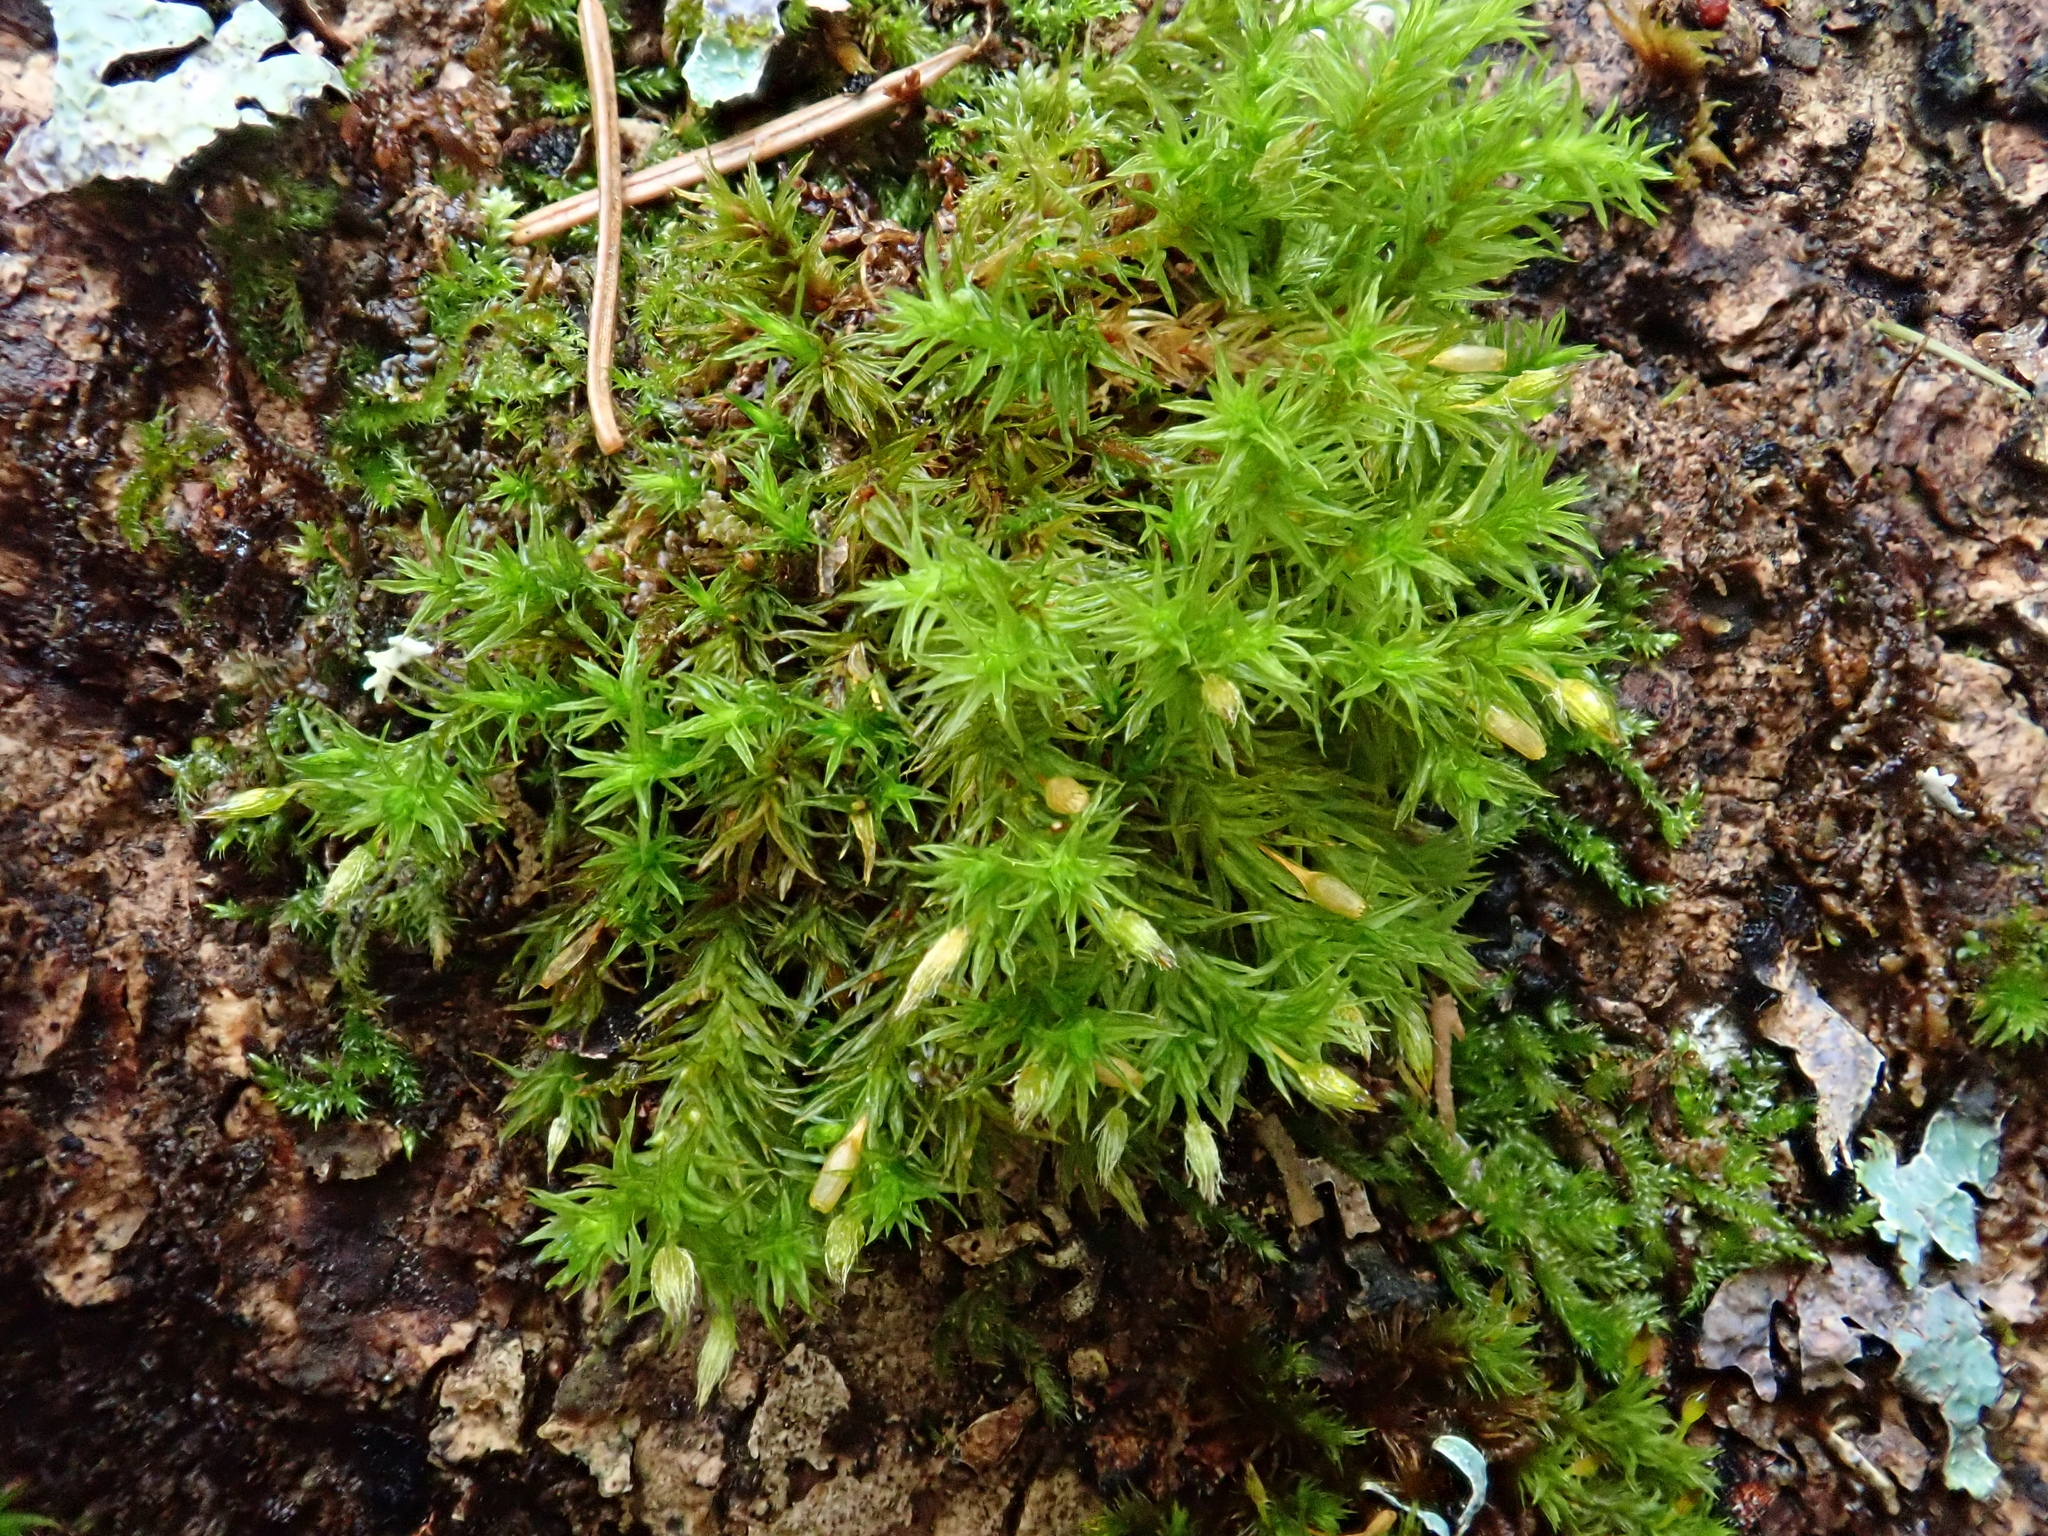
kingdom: Plantae
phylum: Bryophyta
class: Bryopsida
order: Orthotrichales
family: Orthotrichaceae
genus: Lewinskya
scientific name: Lewinskya speciosa
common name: Showy bristle moss
